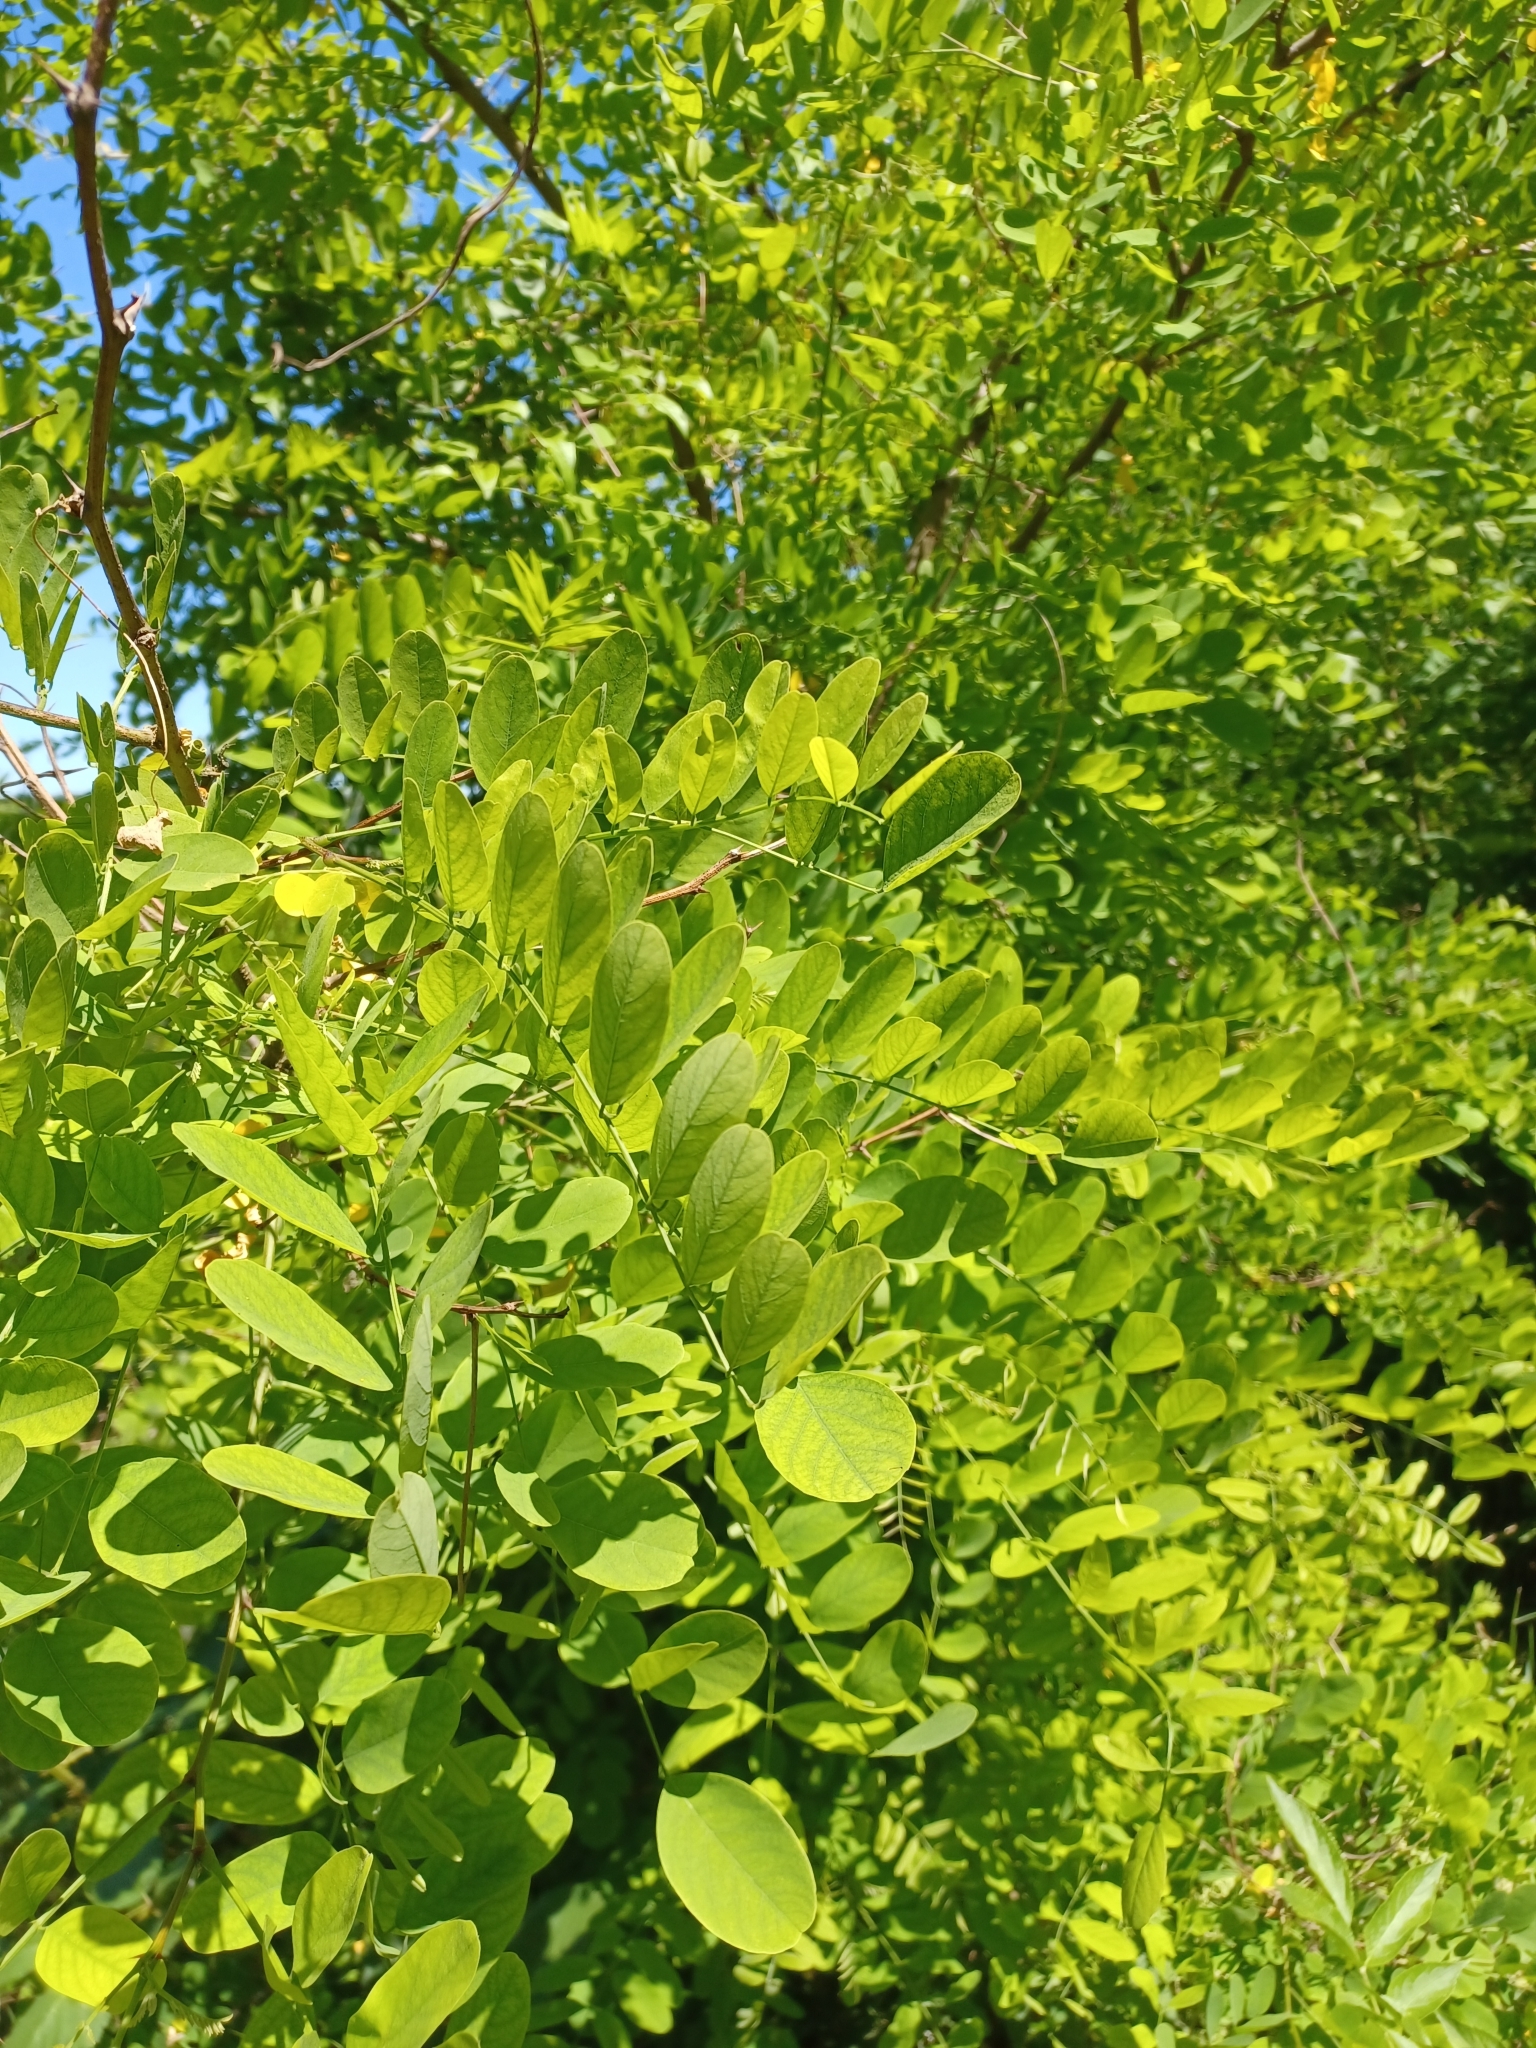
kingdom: Plantae
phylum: Tracheophyta
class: Magnoliopsida
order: Fabales
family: Fabaceae
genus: Robinia
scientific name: Robinia pseudoacacia
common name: Black locust
